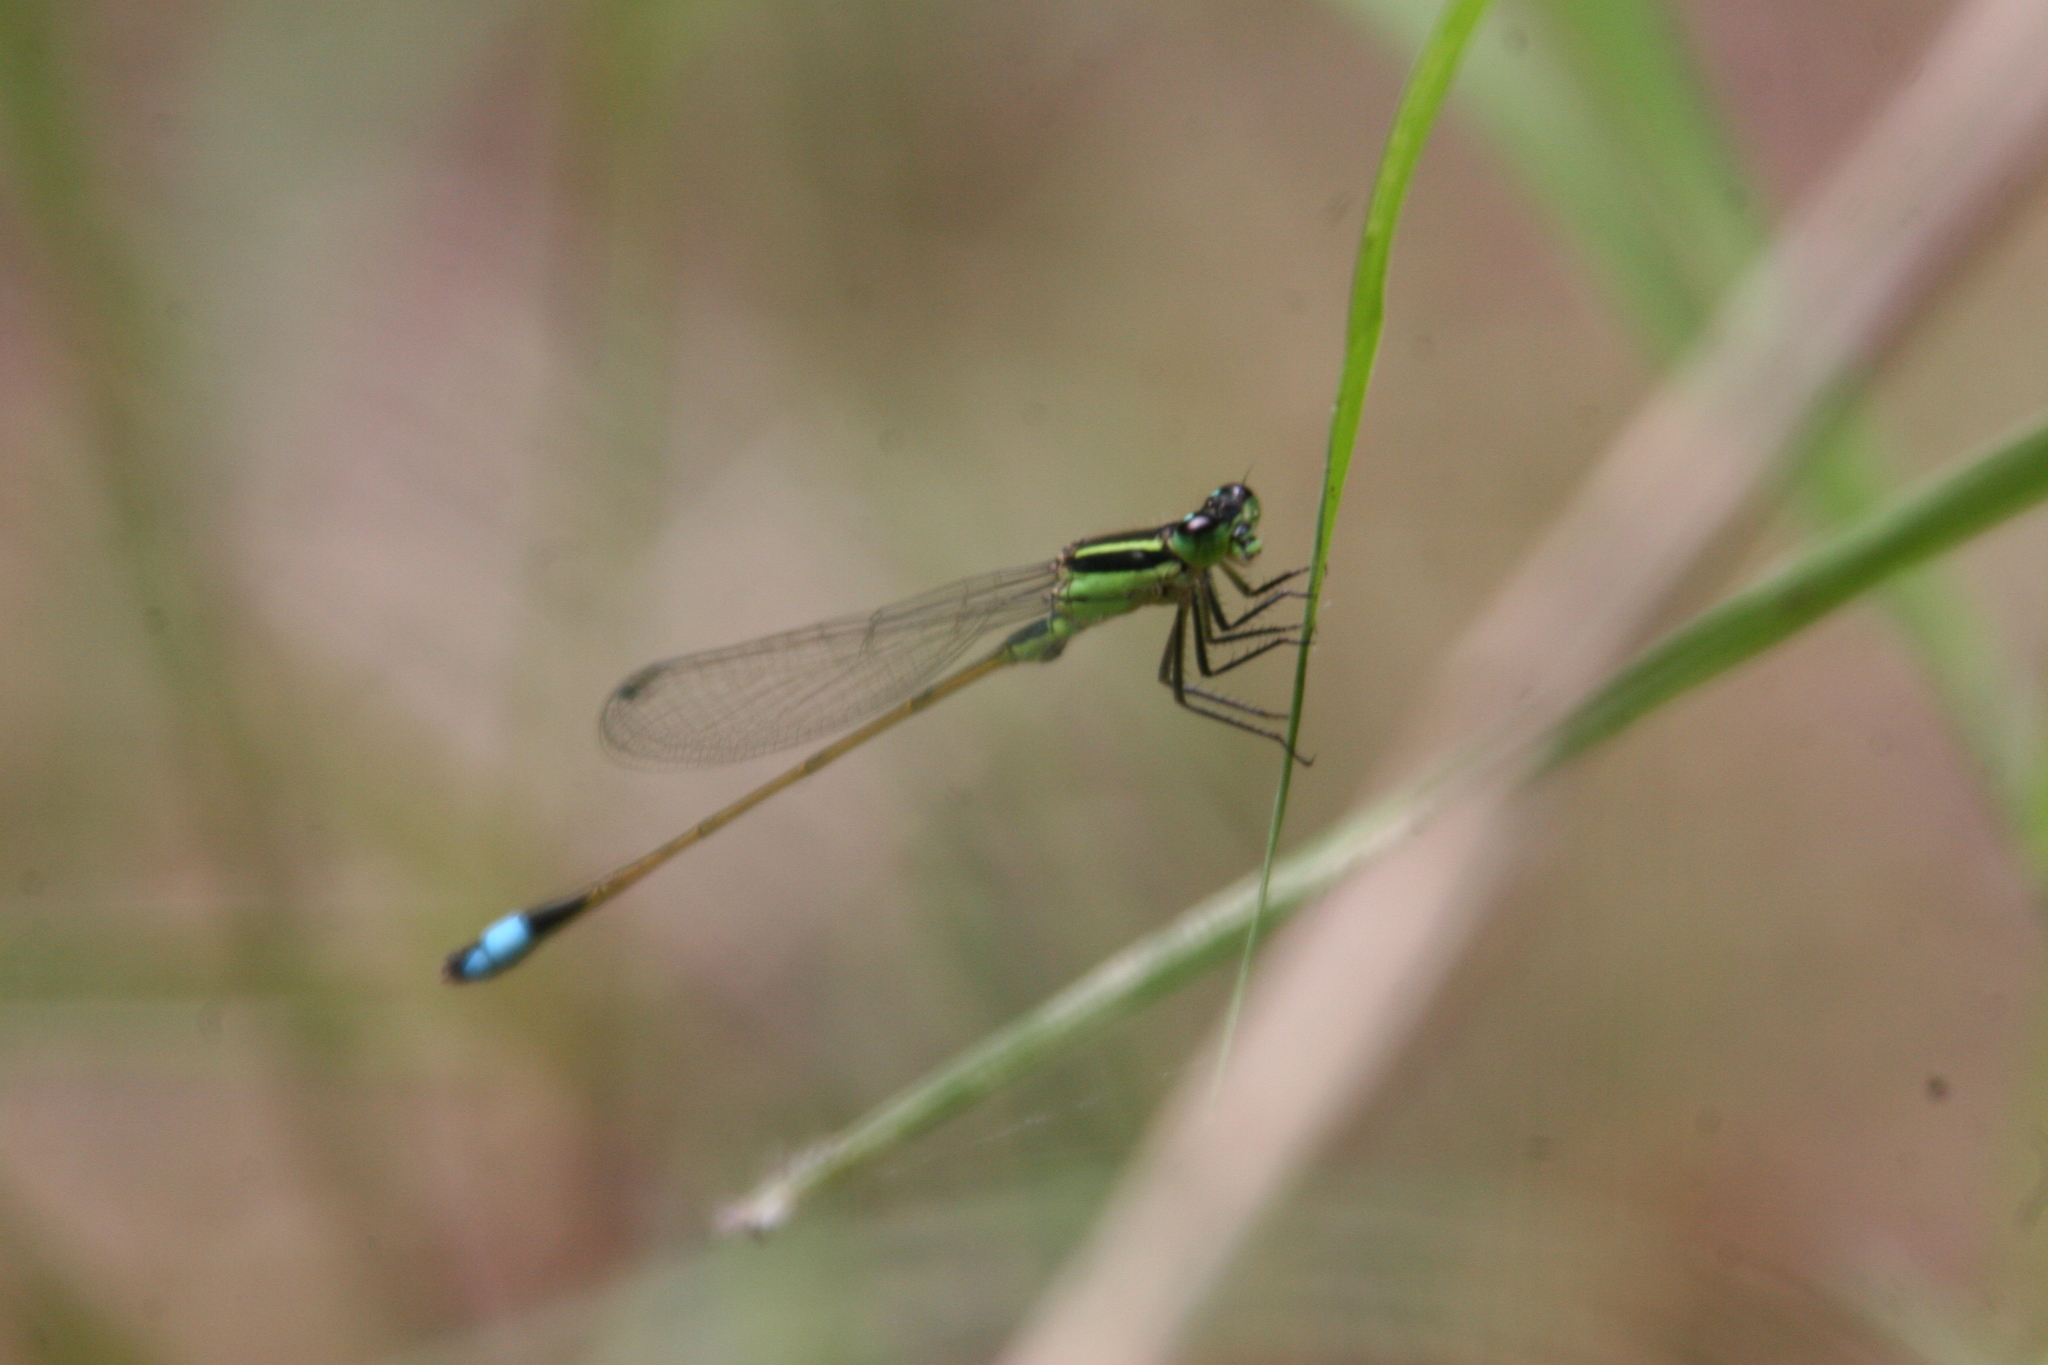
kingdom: Animalia
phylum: Arthropoda
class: Insecta
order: Odonata
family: Coenagrionidae
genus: Ischnura
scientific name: Ischnura ramburii
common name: Rambur's forktail
